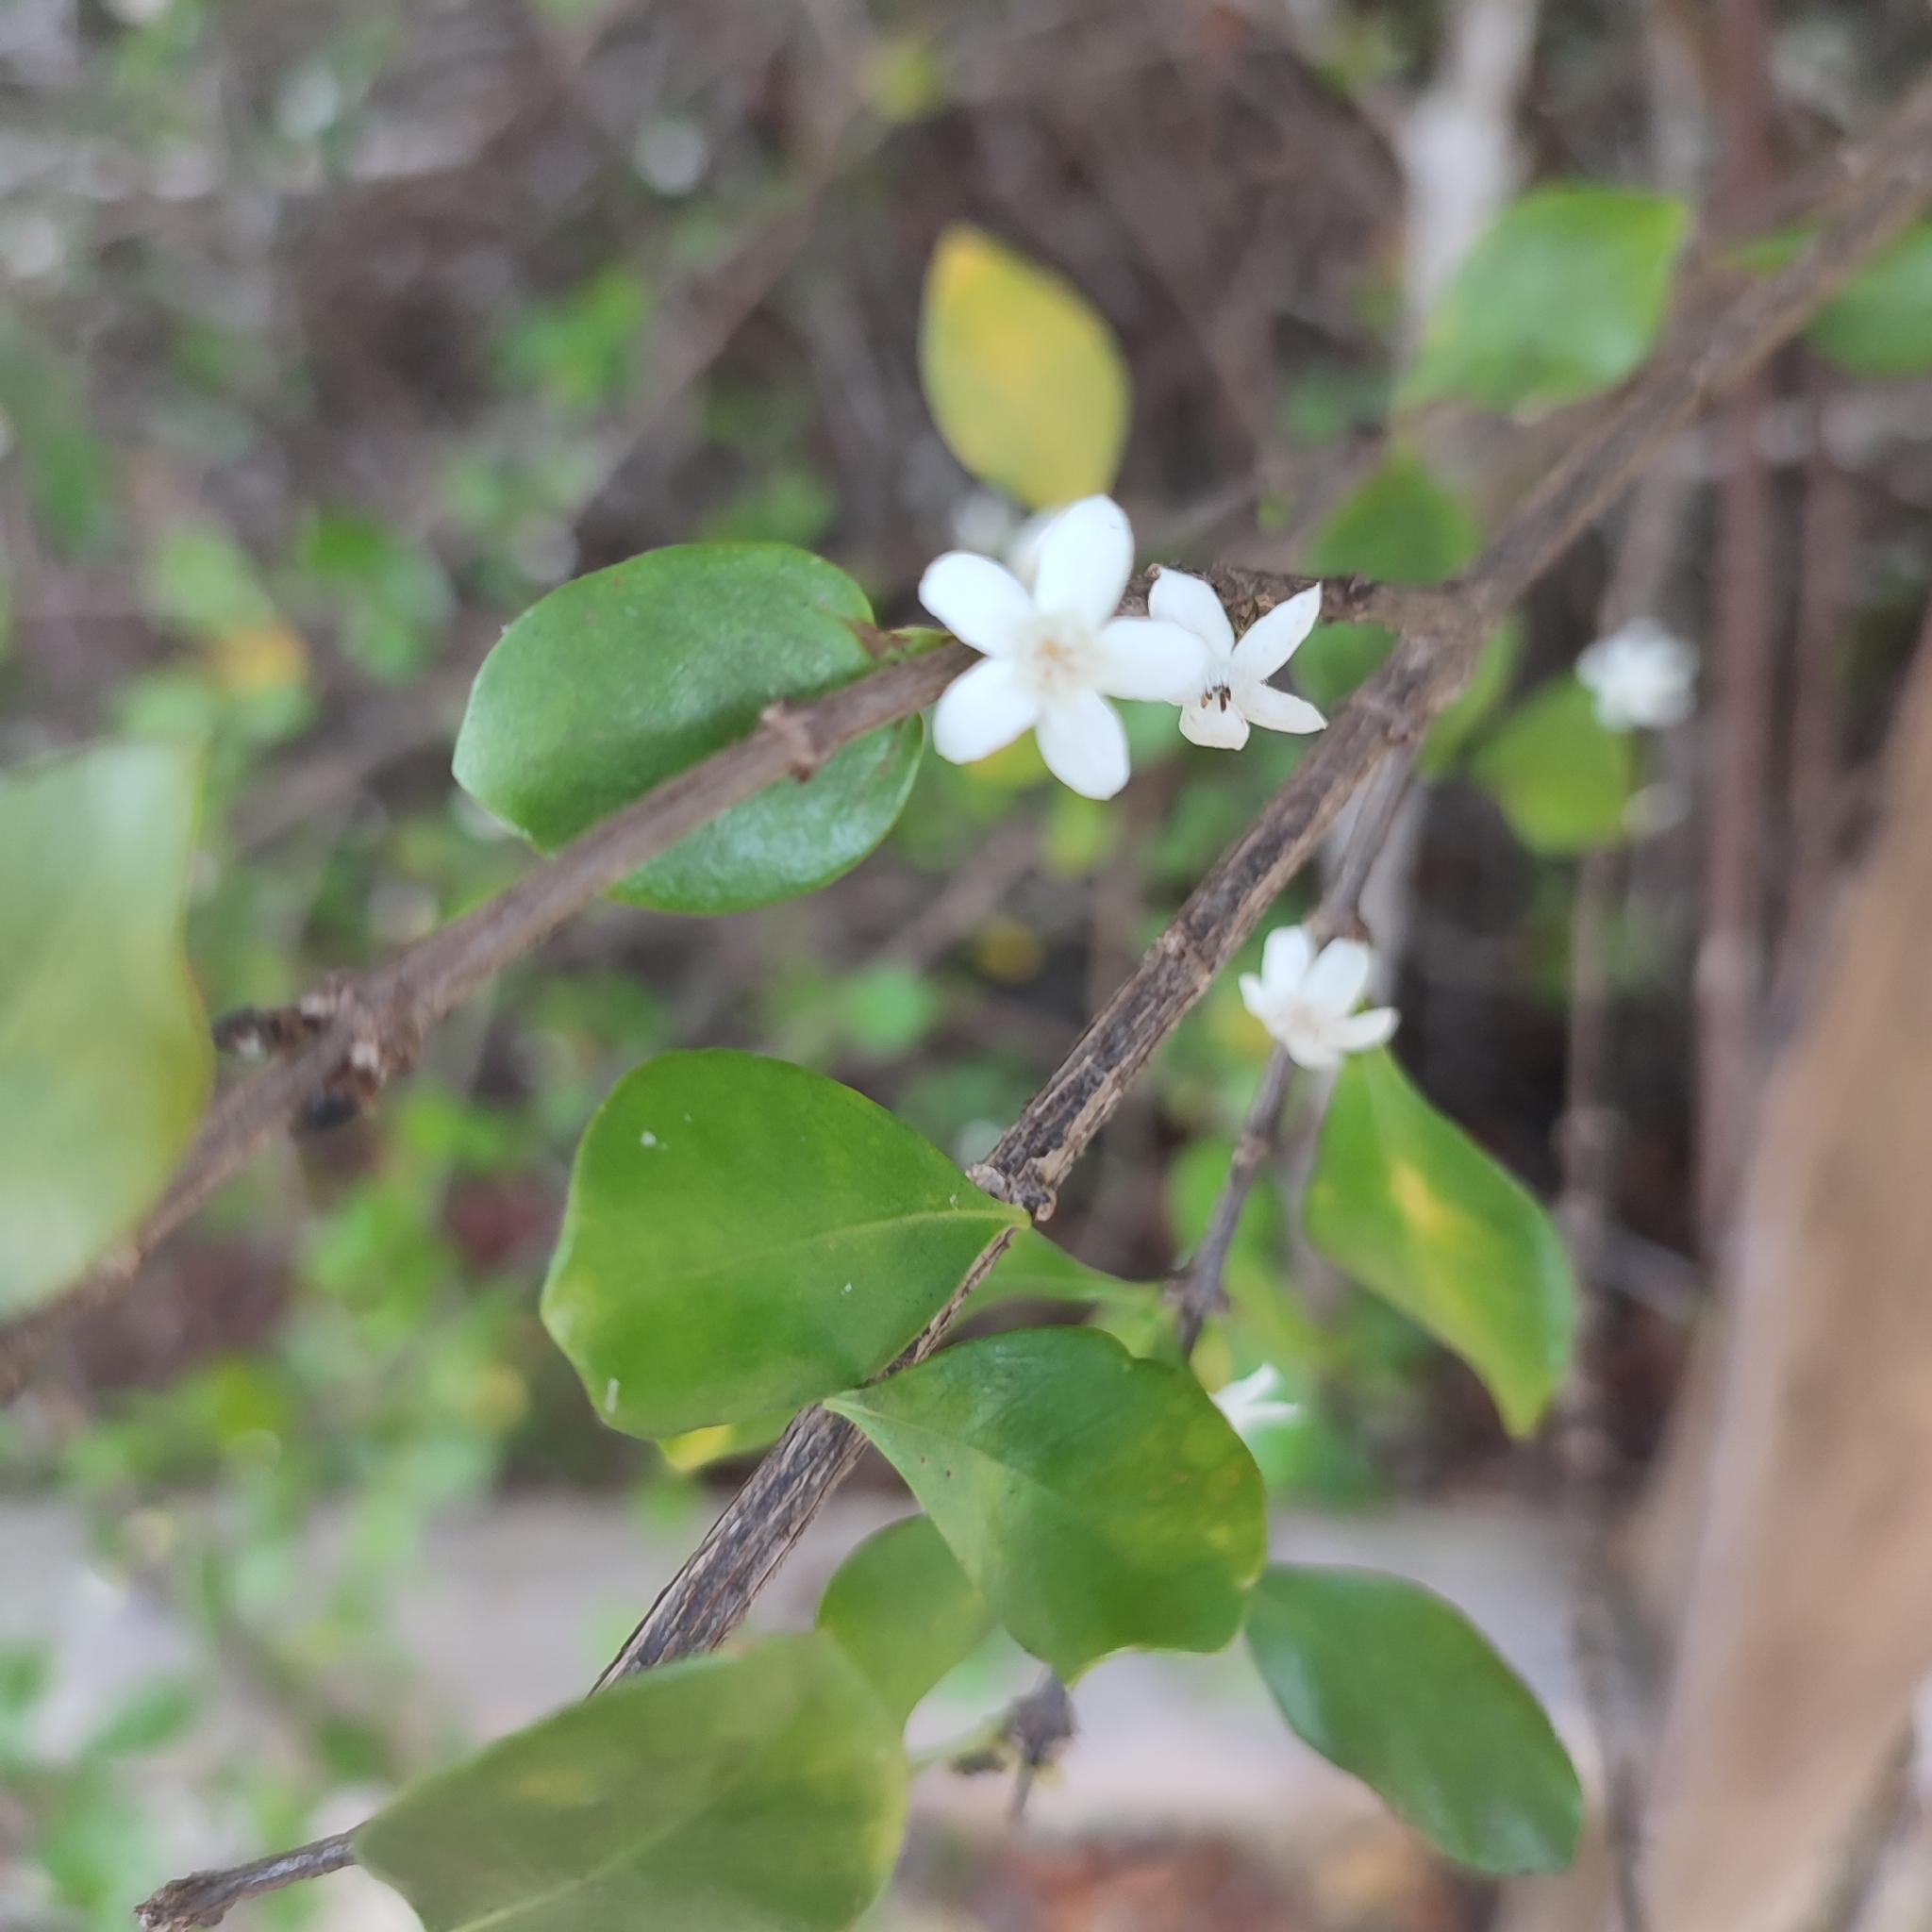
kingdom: Plantae
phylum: Tracheophyta
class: Magnoliopsida
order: Gentianales
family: Rubiaceae
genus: Randia
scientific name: Randia aculeata
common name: Inkberry
